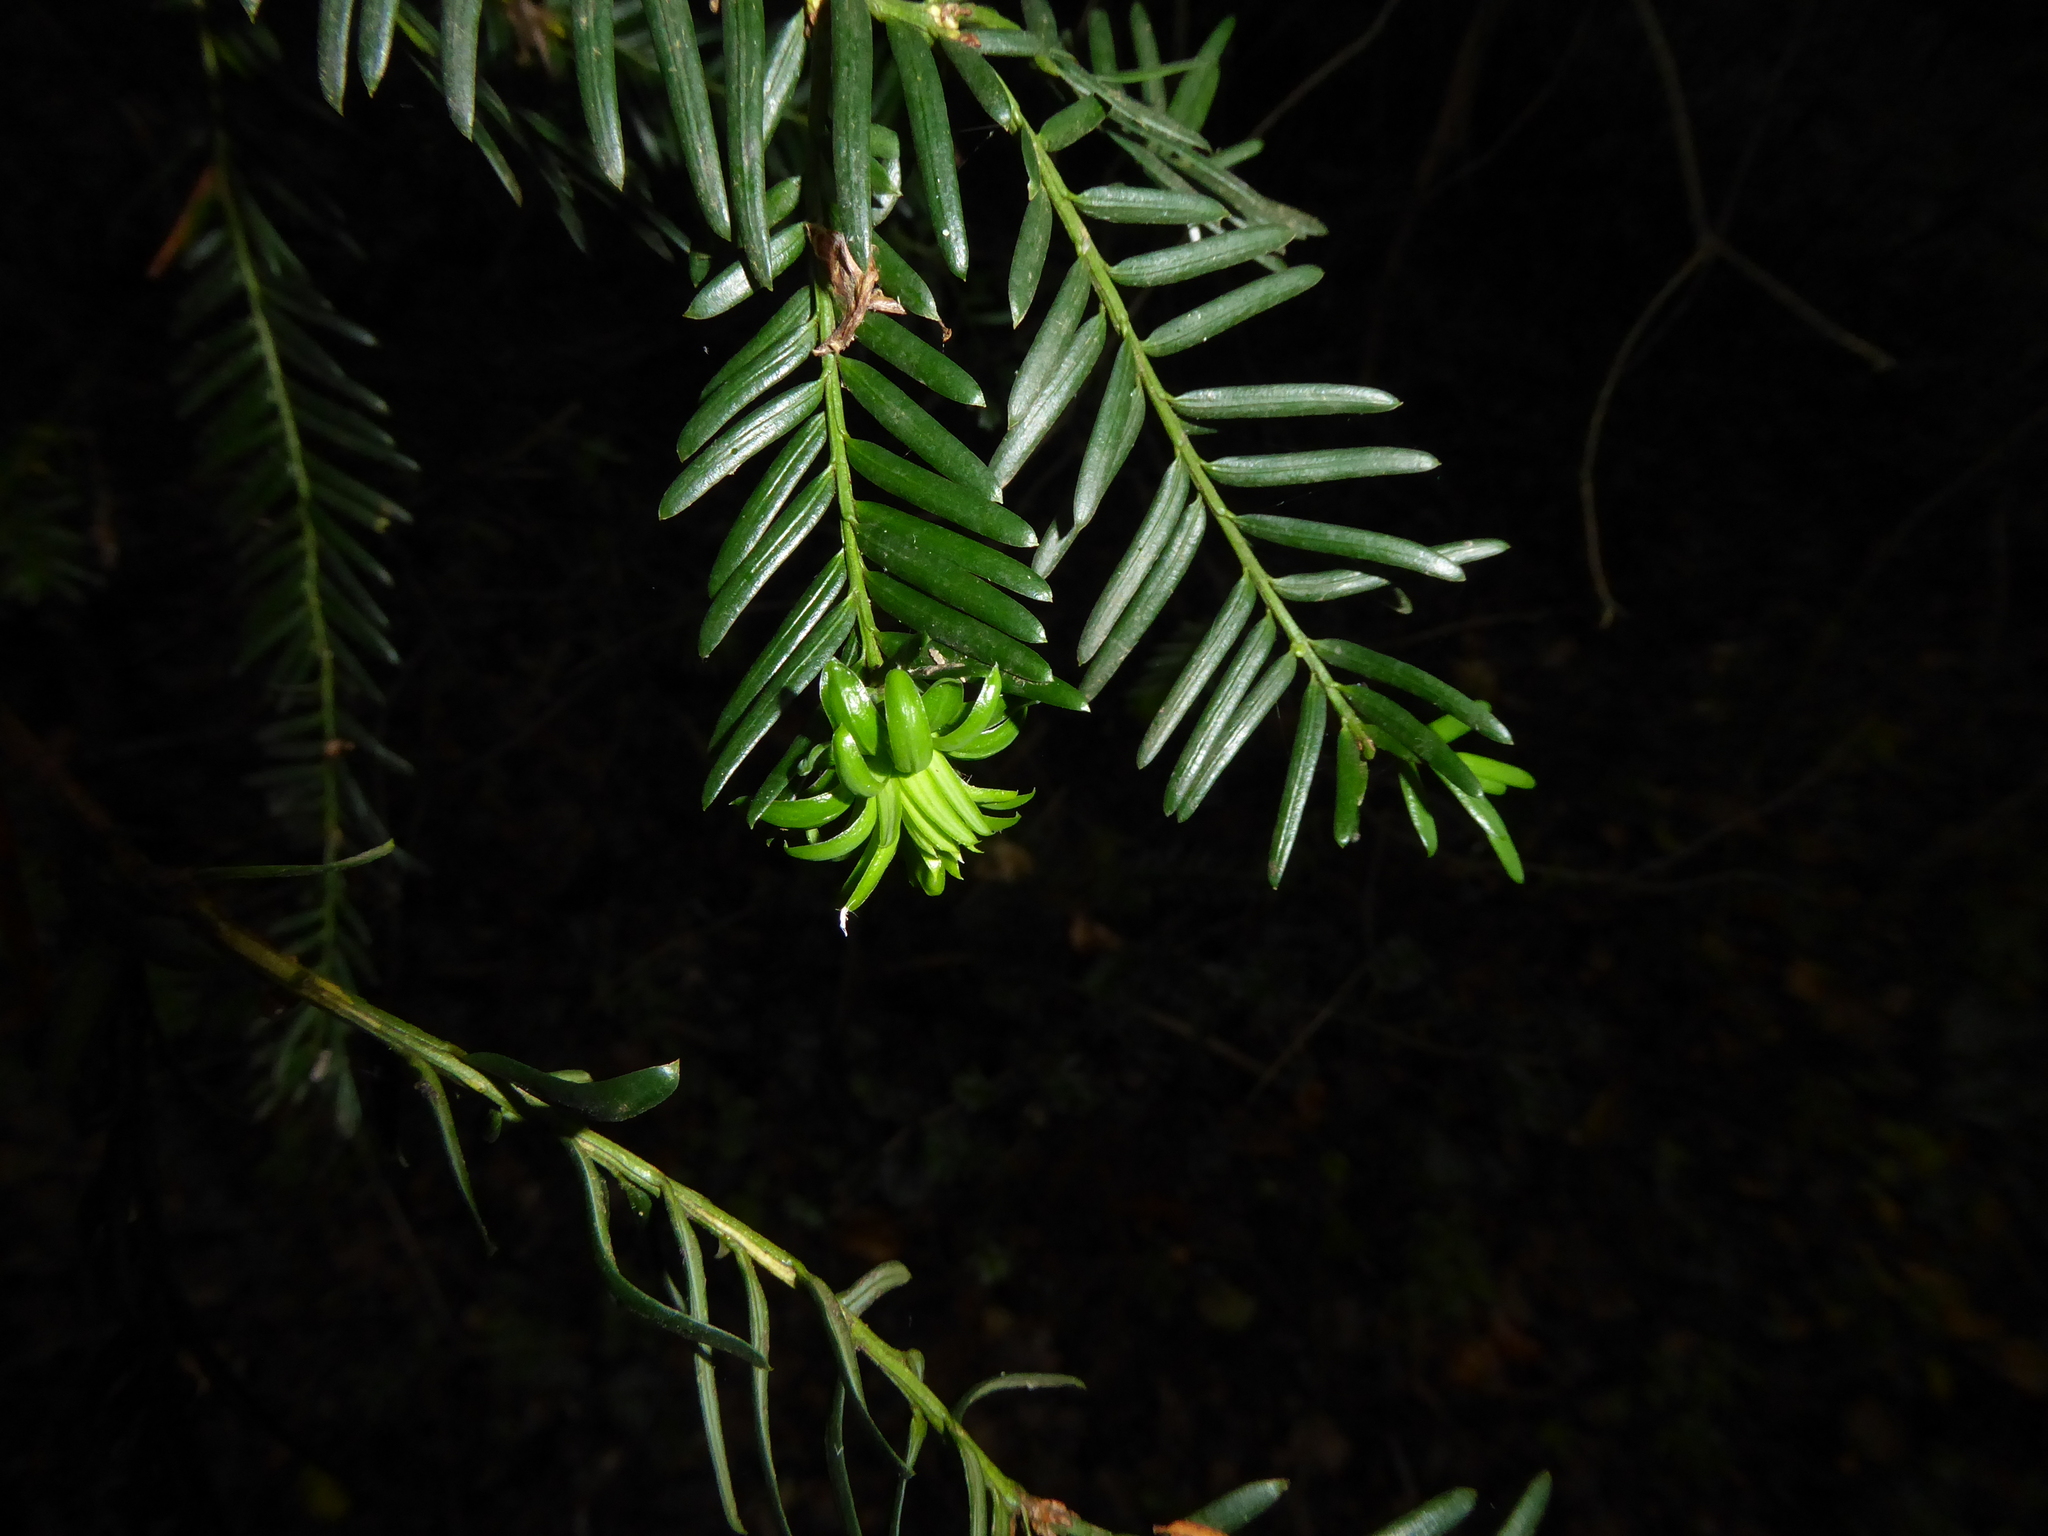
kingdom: Animalia
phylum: Arthropoda
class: Insecta
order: Diptera
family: Cecidomyiidae
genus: Taxomyia
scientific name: Taxomyia taxi
